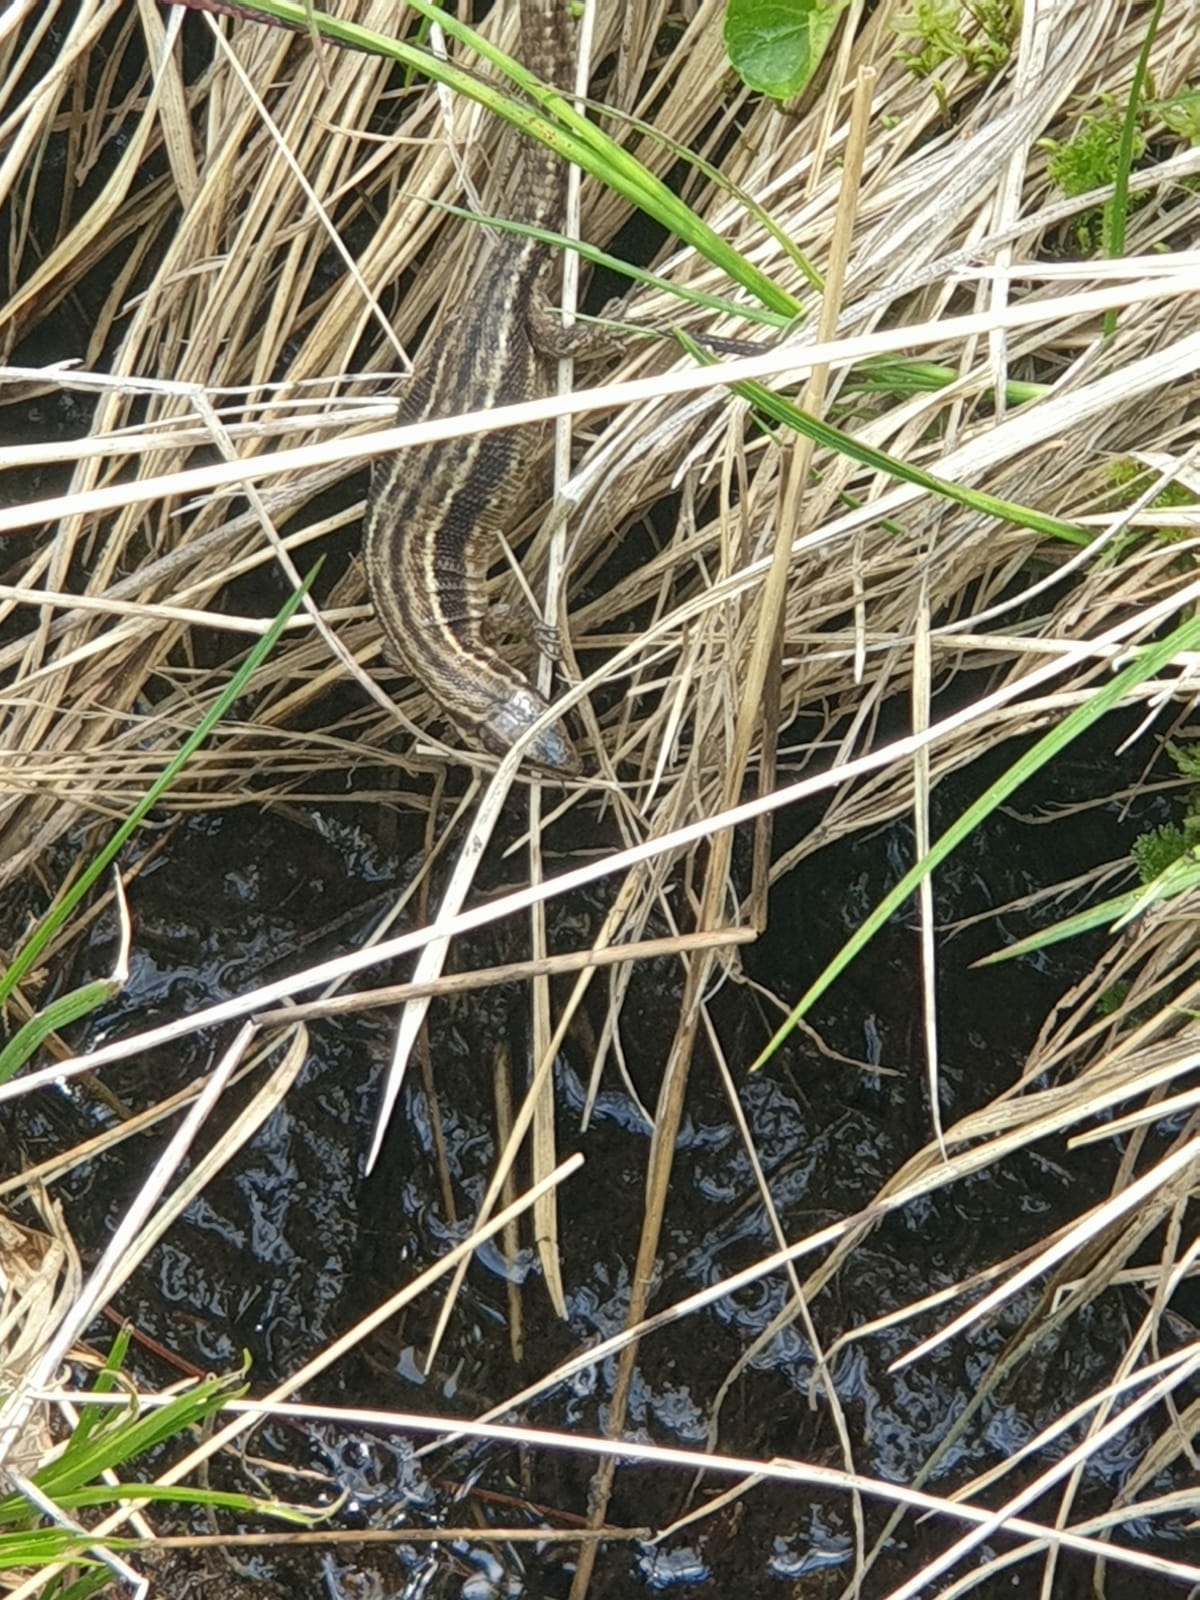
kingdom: Animalia
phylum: Chordata
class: Squamata
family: Lacertidae
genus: Zootoca
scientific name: Zootoca vivipara
